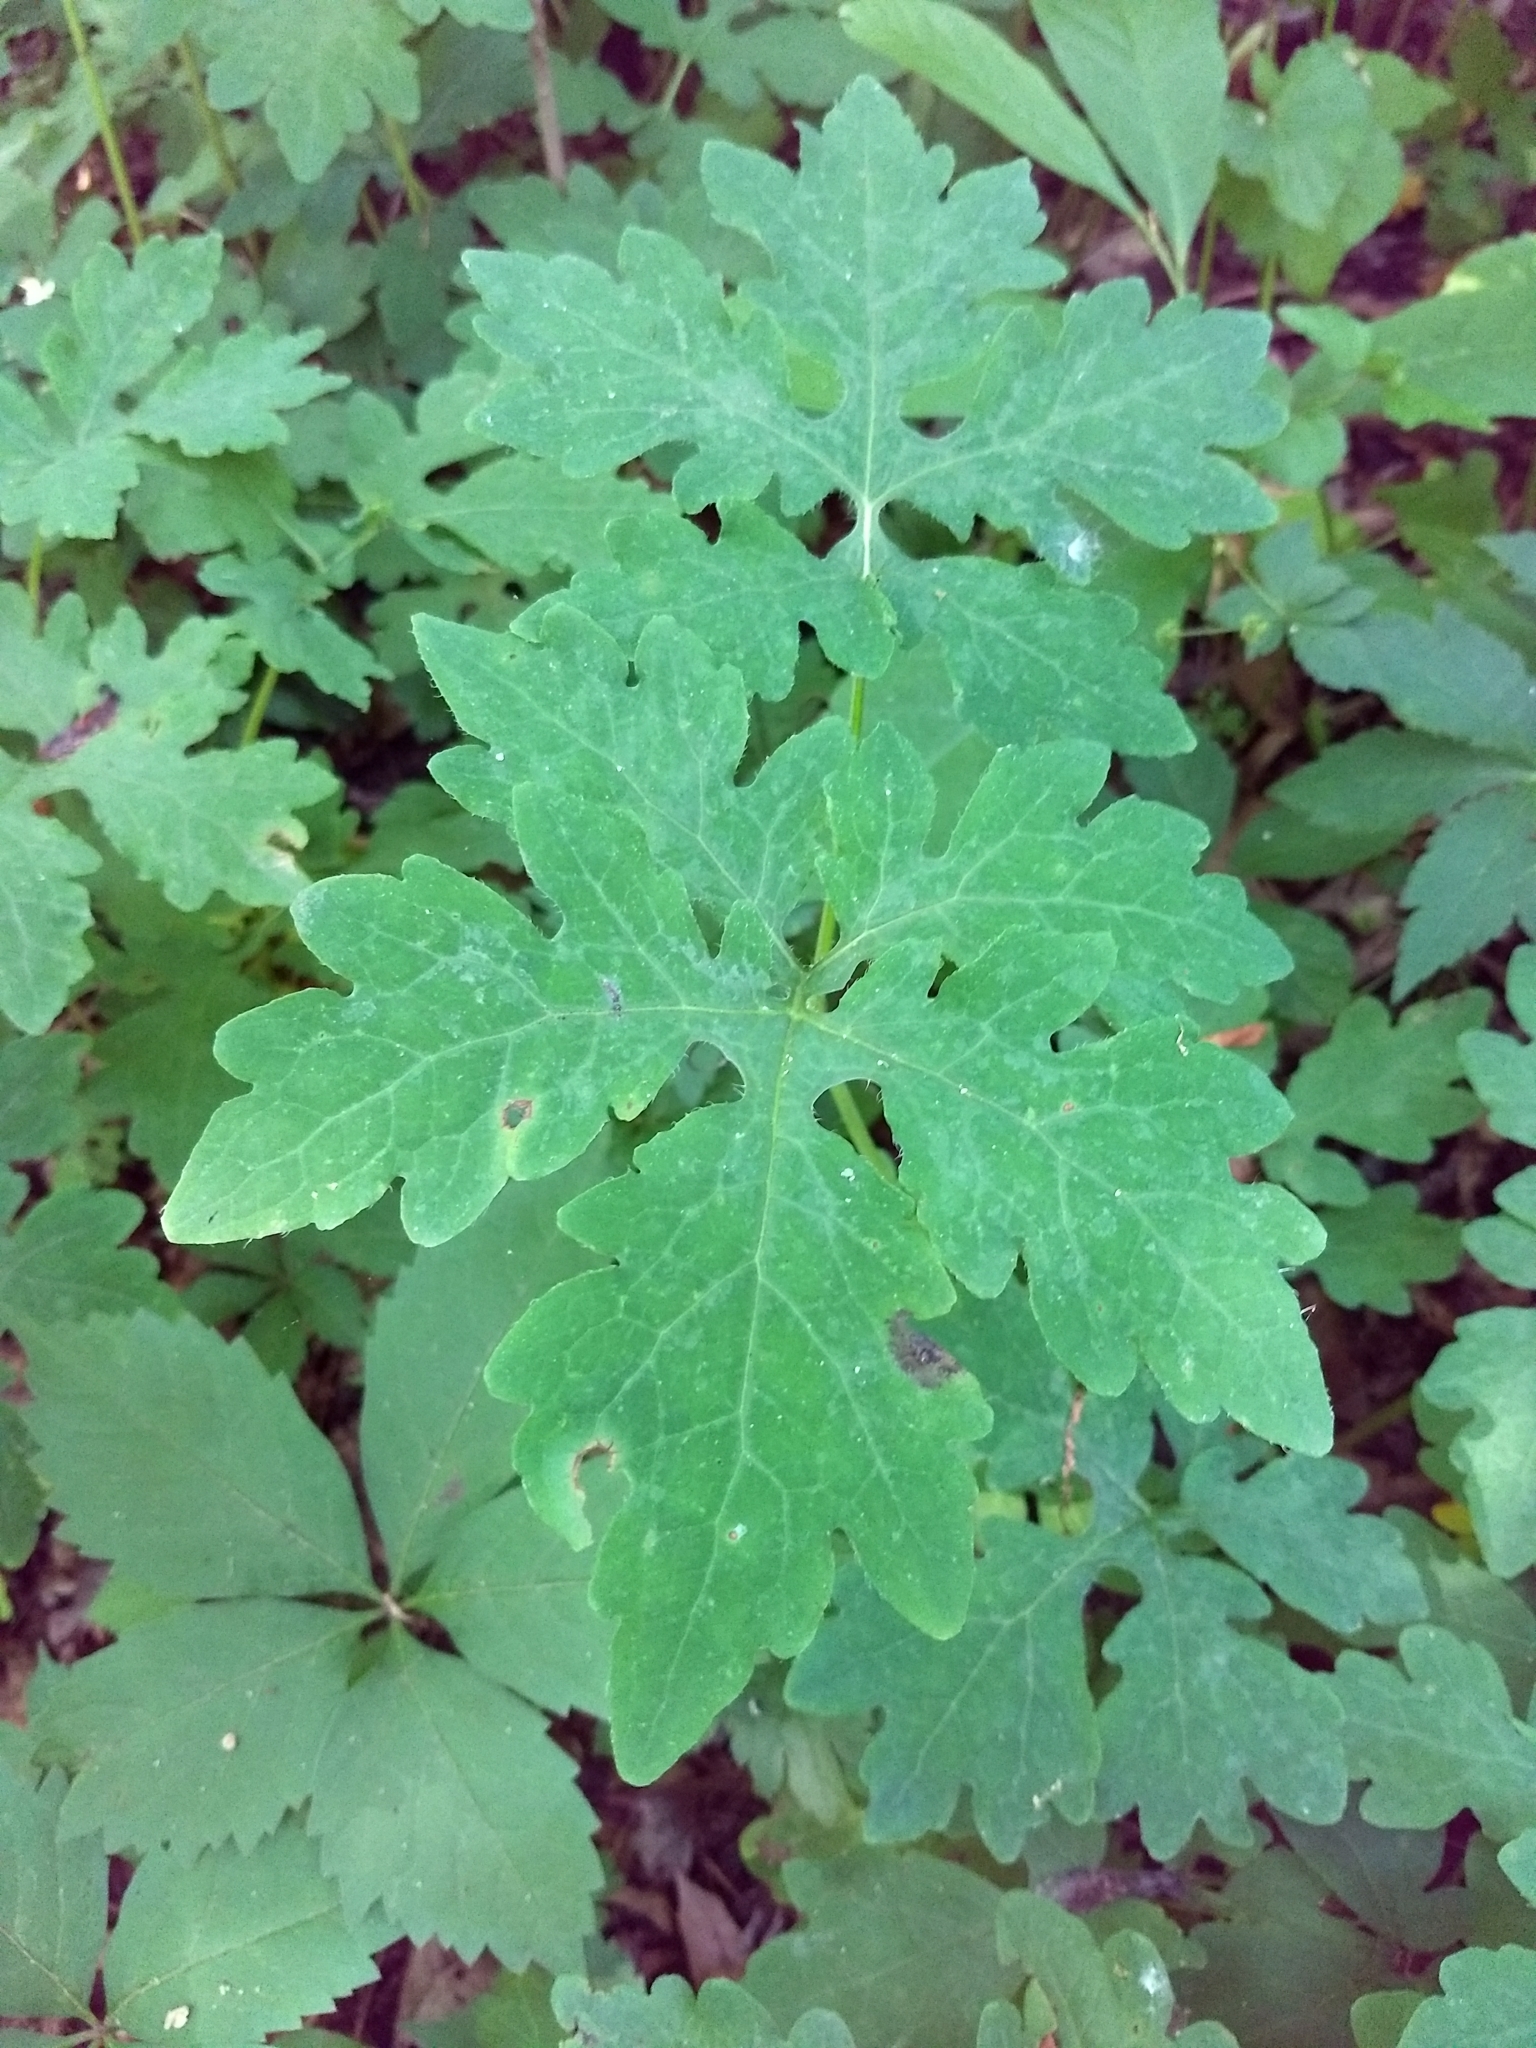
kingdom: Plantae
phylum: Tracheophyta
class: Magnoliopsida
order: Ranunculales
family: Papaveraceae
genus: Stylophorum
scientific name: Stylophorum diphyllum
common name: Celandine poppy
